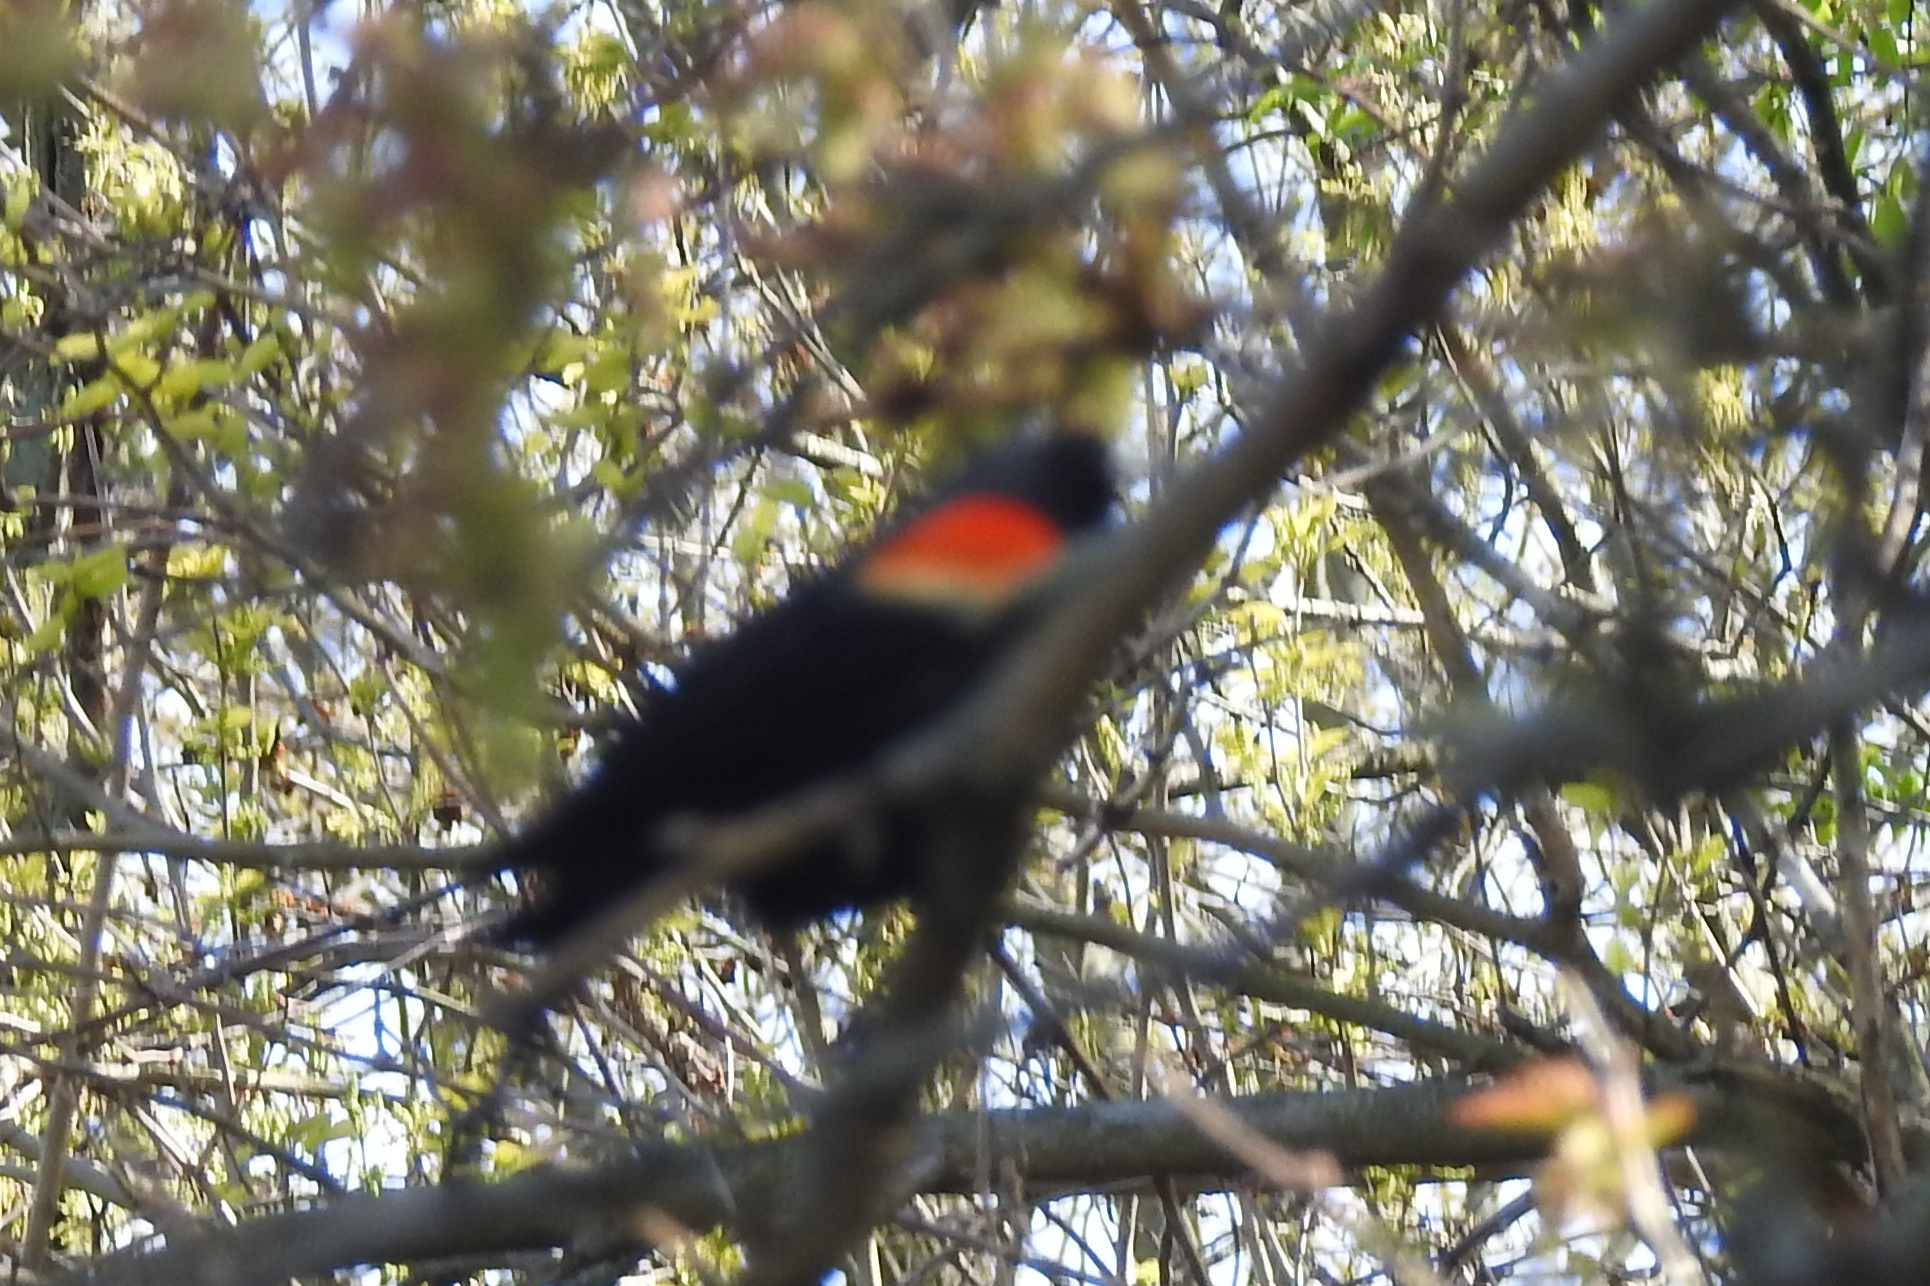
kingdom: Animalia
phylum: Chordata
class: Aves
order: Passeriformes
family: Icteridae
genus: Agelaius
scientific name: Agelaius phoeniceus
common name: Red-winged blackbird
